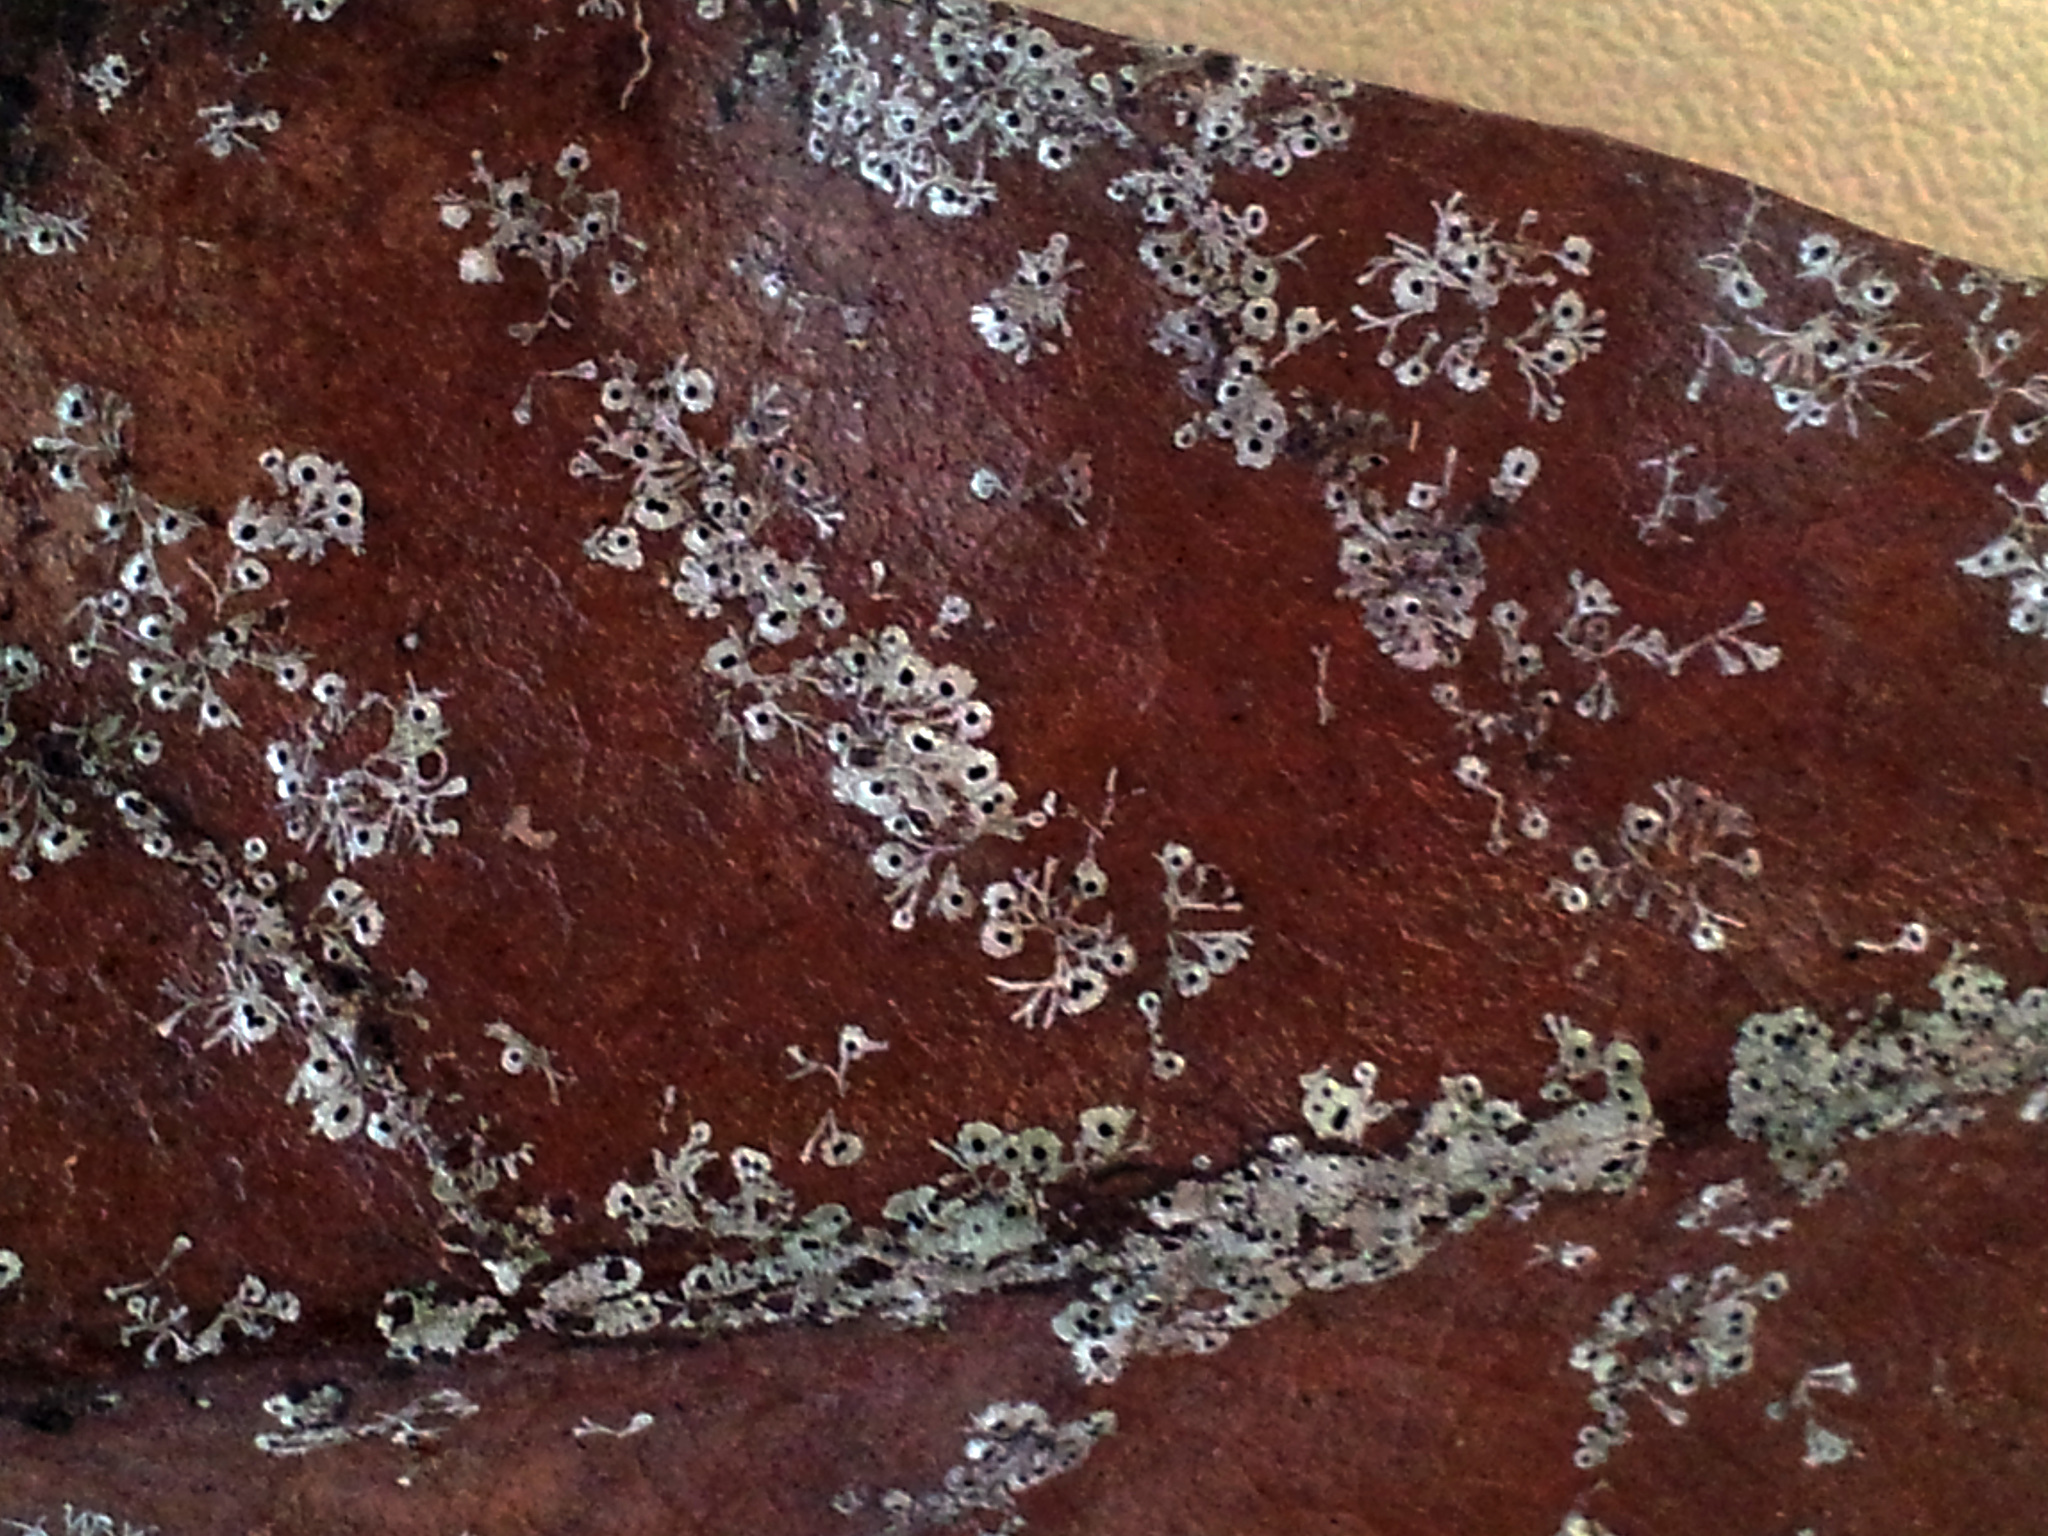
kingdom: Fungi
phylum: Ascomycota
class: Dothideomycetes
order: Strigulales
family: Strigulaceae
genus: Strigula
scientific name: Strigula
